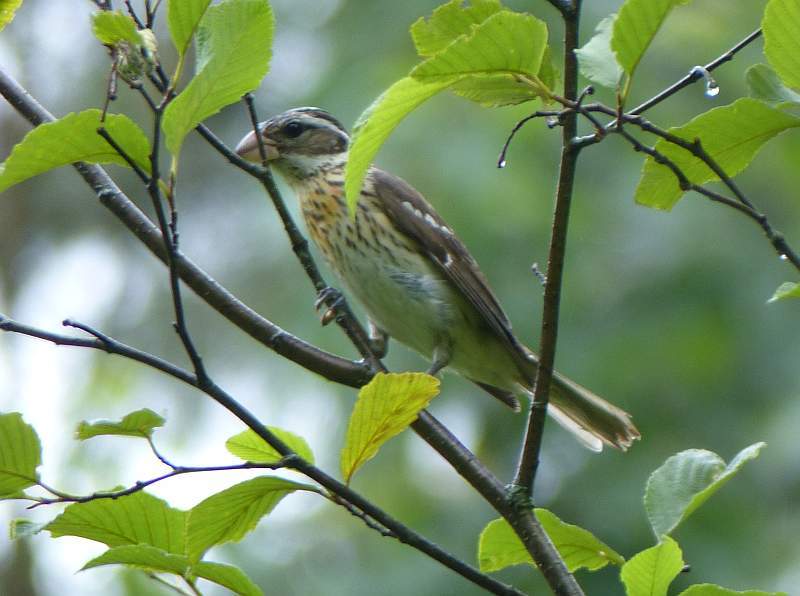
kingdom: Animalia
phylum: Chordata
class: Aves
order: Passeriformes
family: Cardinalidae
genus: Pheucticus
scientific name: Pheucticus ludovicianus
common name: Rose-breasted grosbeak
